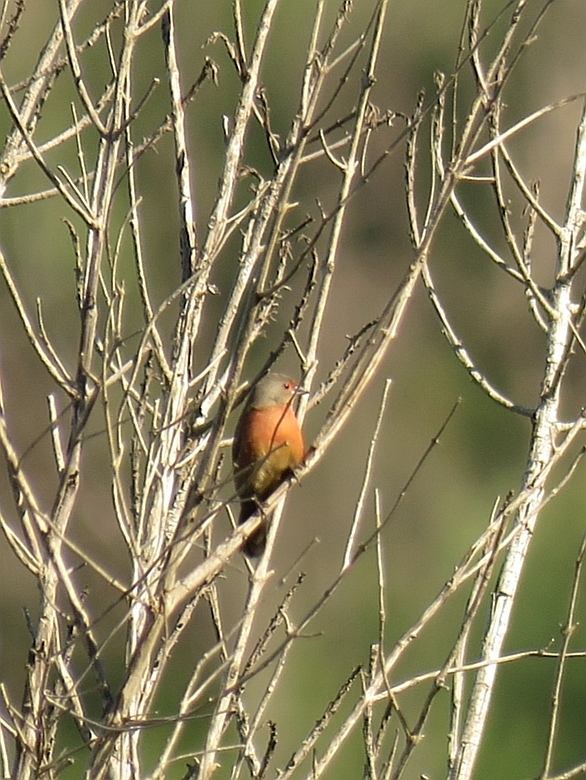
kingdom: Animalia
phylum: Chordata
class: Aves
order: Passeriformes
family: Estrildidae
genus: Lagonosticta
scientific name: Lagonosticta rubricata
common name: African firefinch
